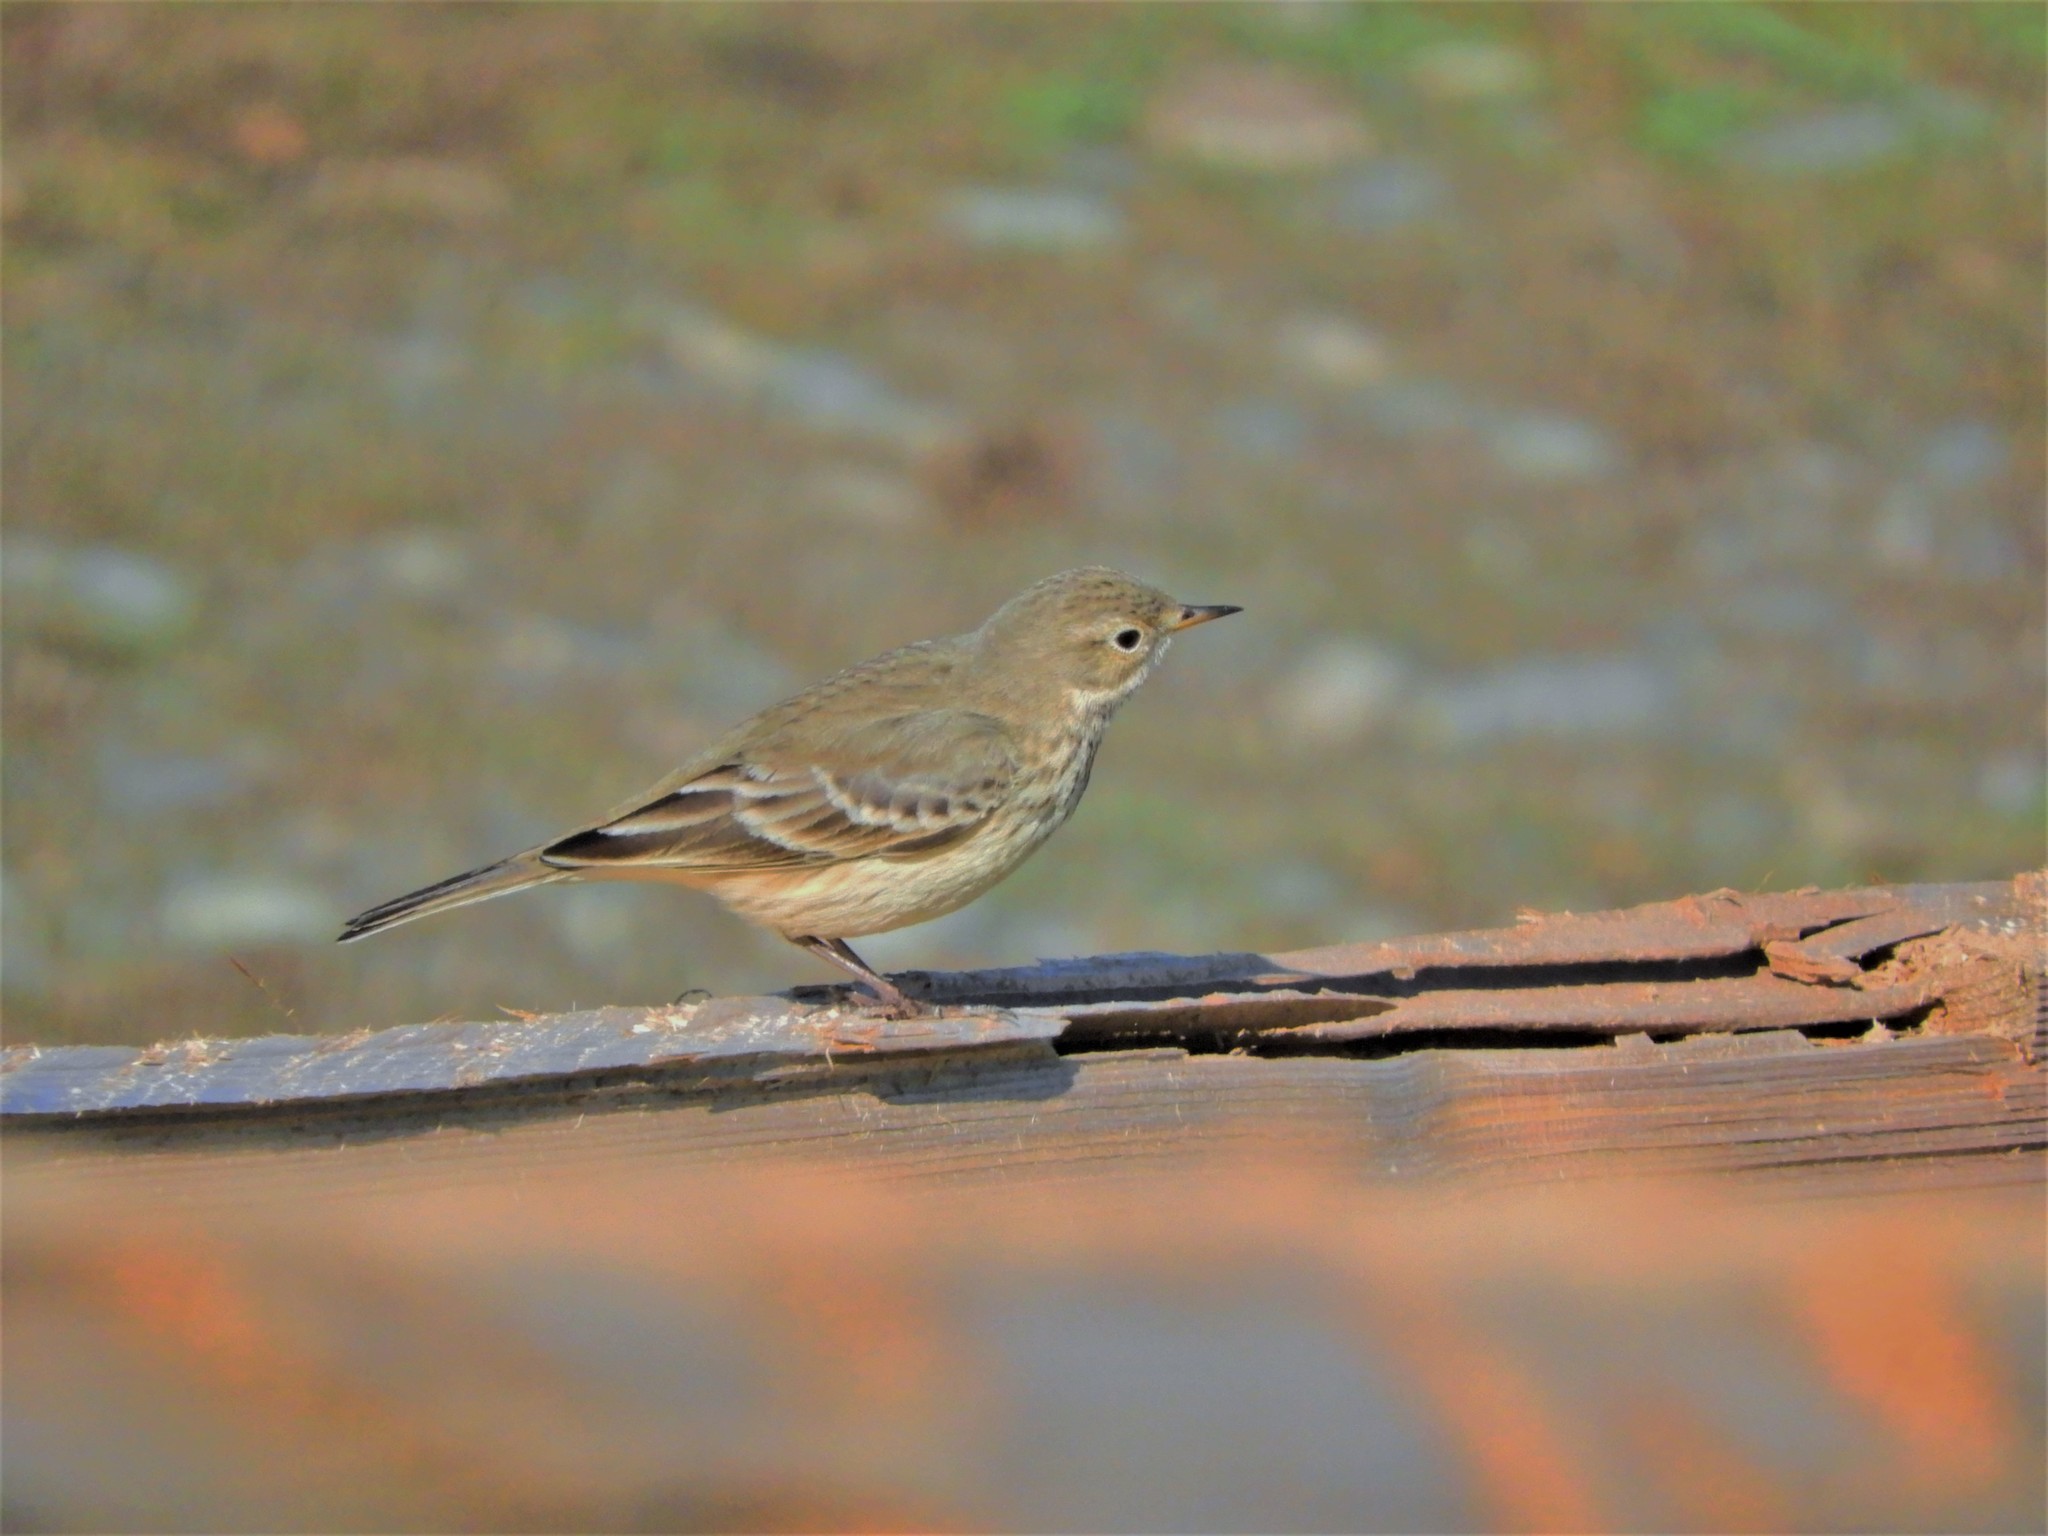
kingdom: Animalia
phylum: Chordata
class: Aves
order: Passeriformes
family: Motacillidae
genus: Anthus
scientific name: Anthus rubescens
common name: Buff-bellied pipit
